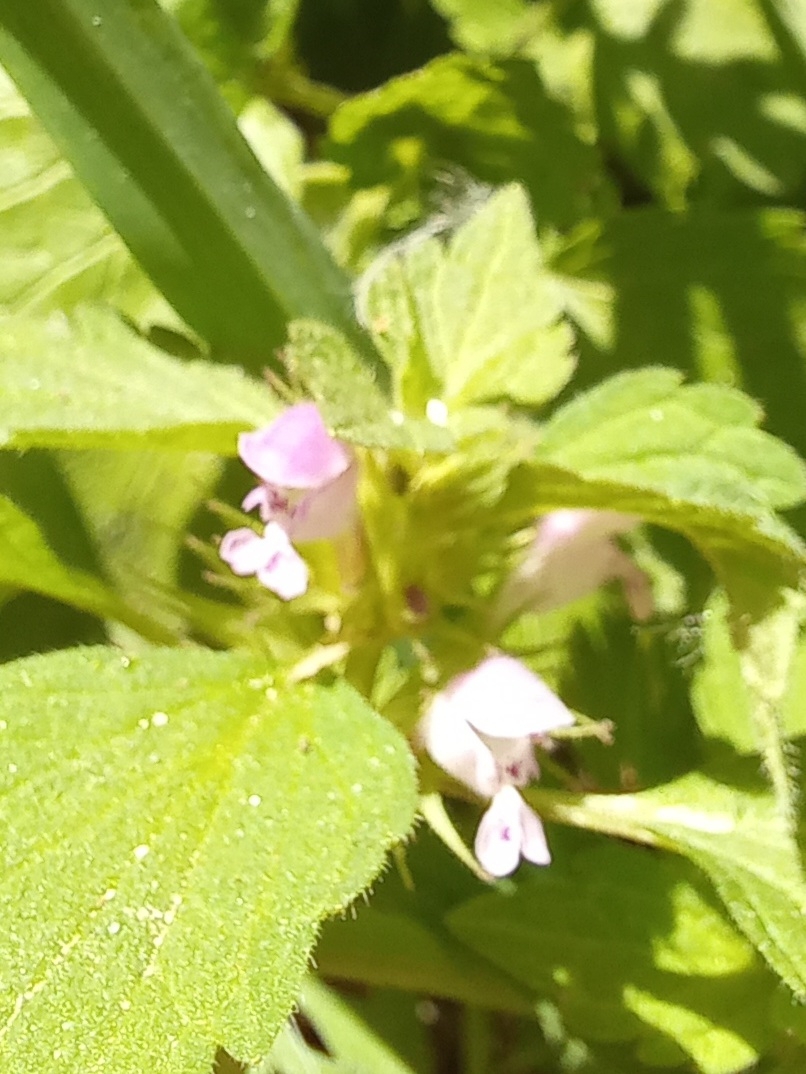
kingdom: Plantae
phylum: Tracheophyta
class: Magnoliopsida
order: Lamiales
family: Lamiaceae
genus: Lamium
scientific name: Lamium purpureum
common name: Red dead-nettle
